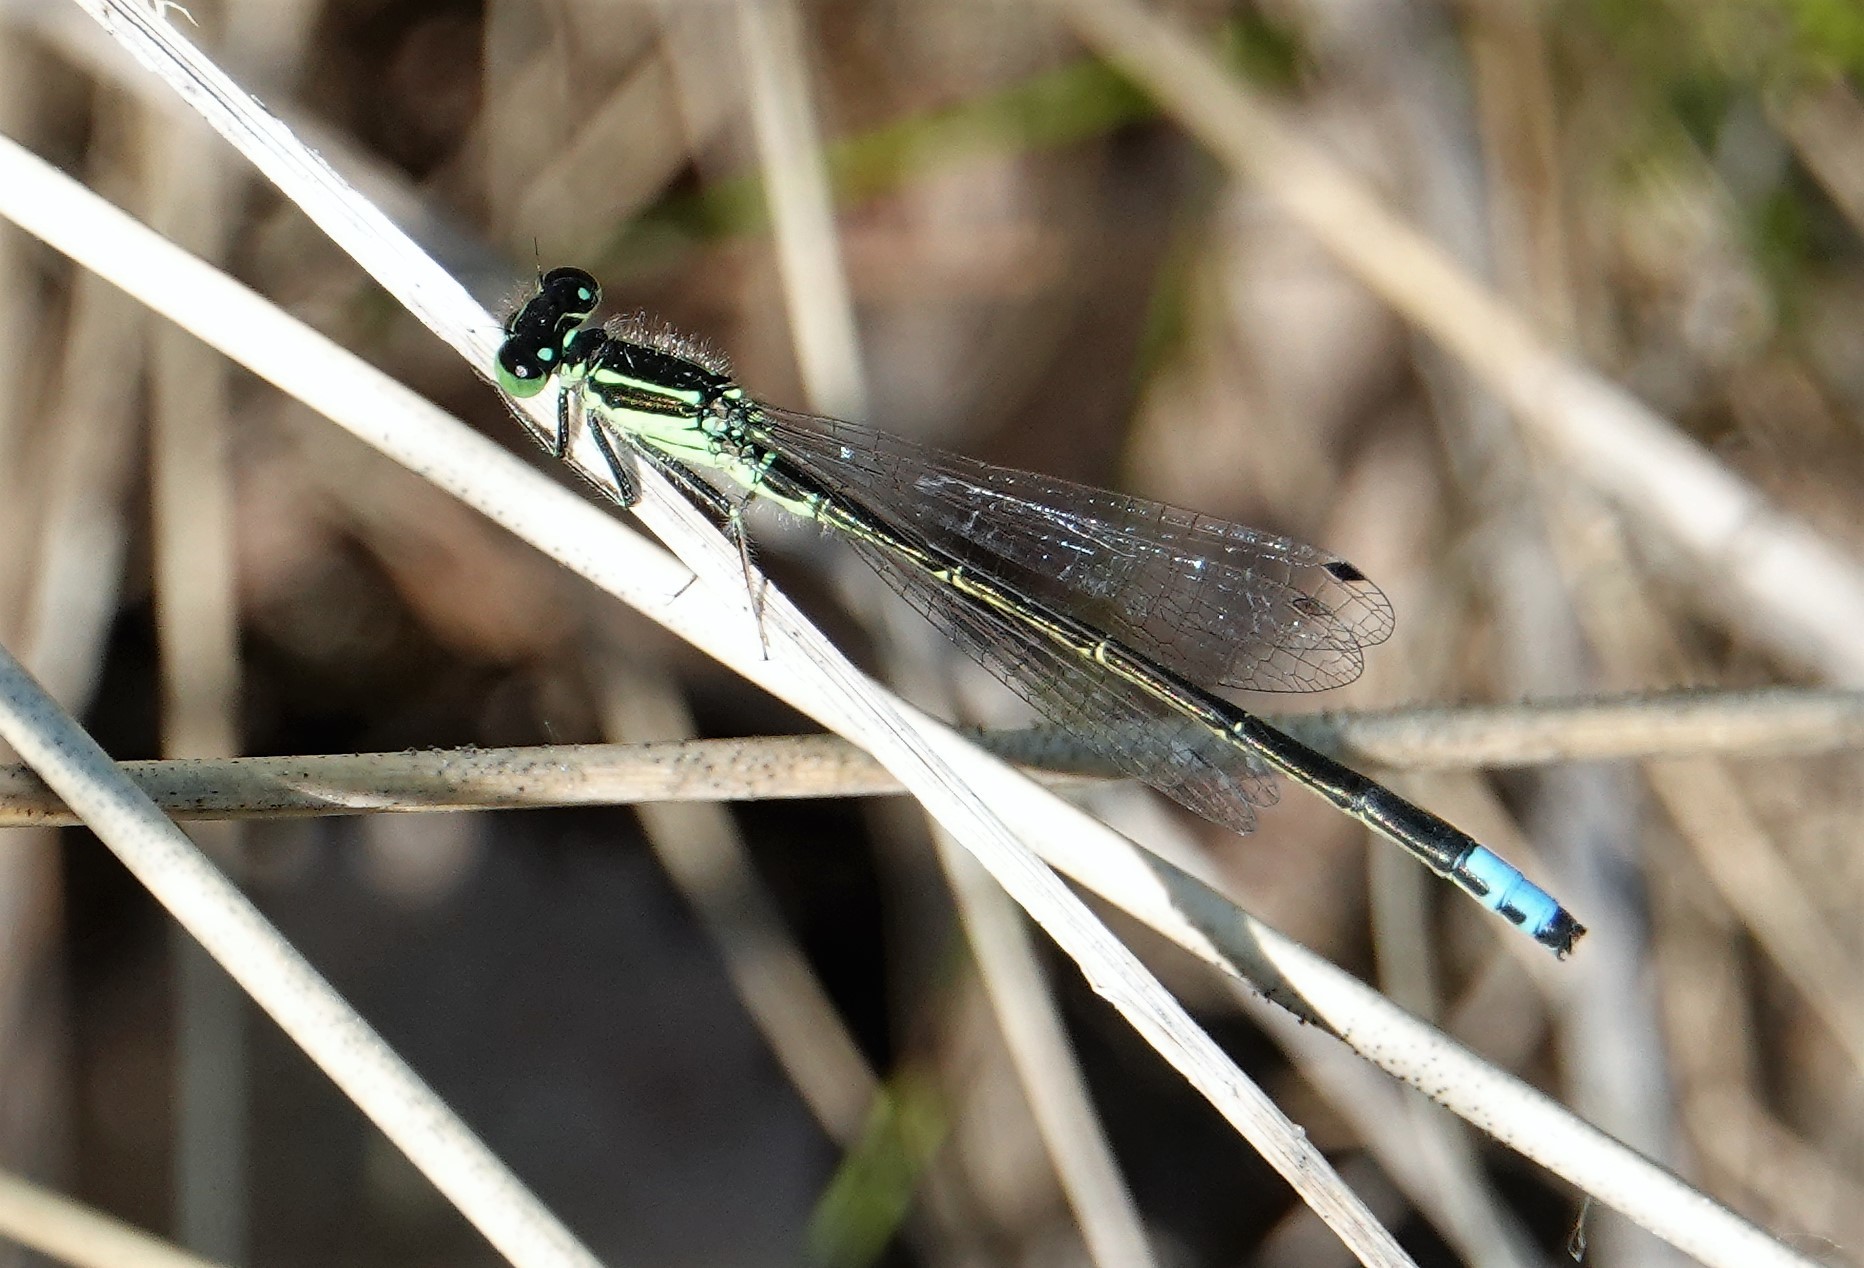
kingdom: Animalia
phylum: Arthropoda
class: Insecta
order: Odonata
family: Coenagrionidae
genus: Ischnura
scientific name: Ischnura verticalis
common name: Eastern forktail
